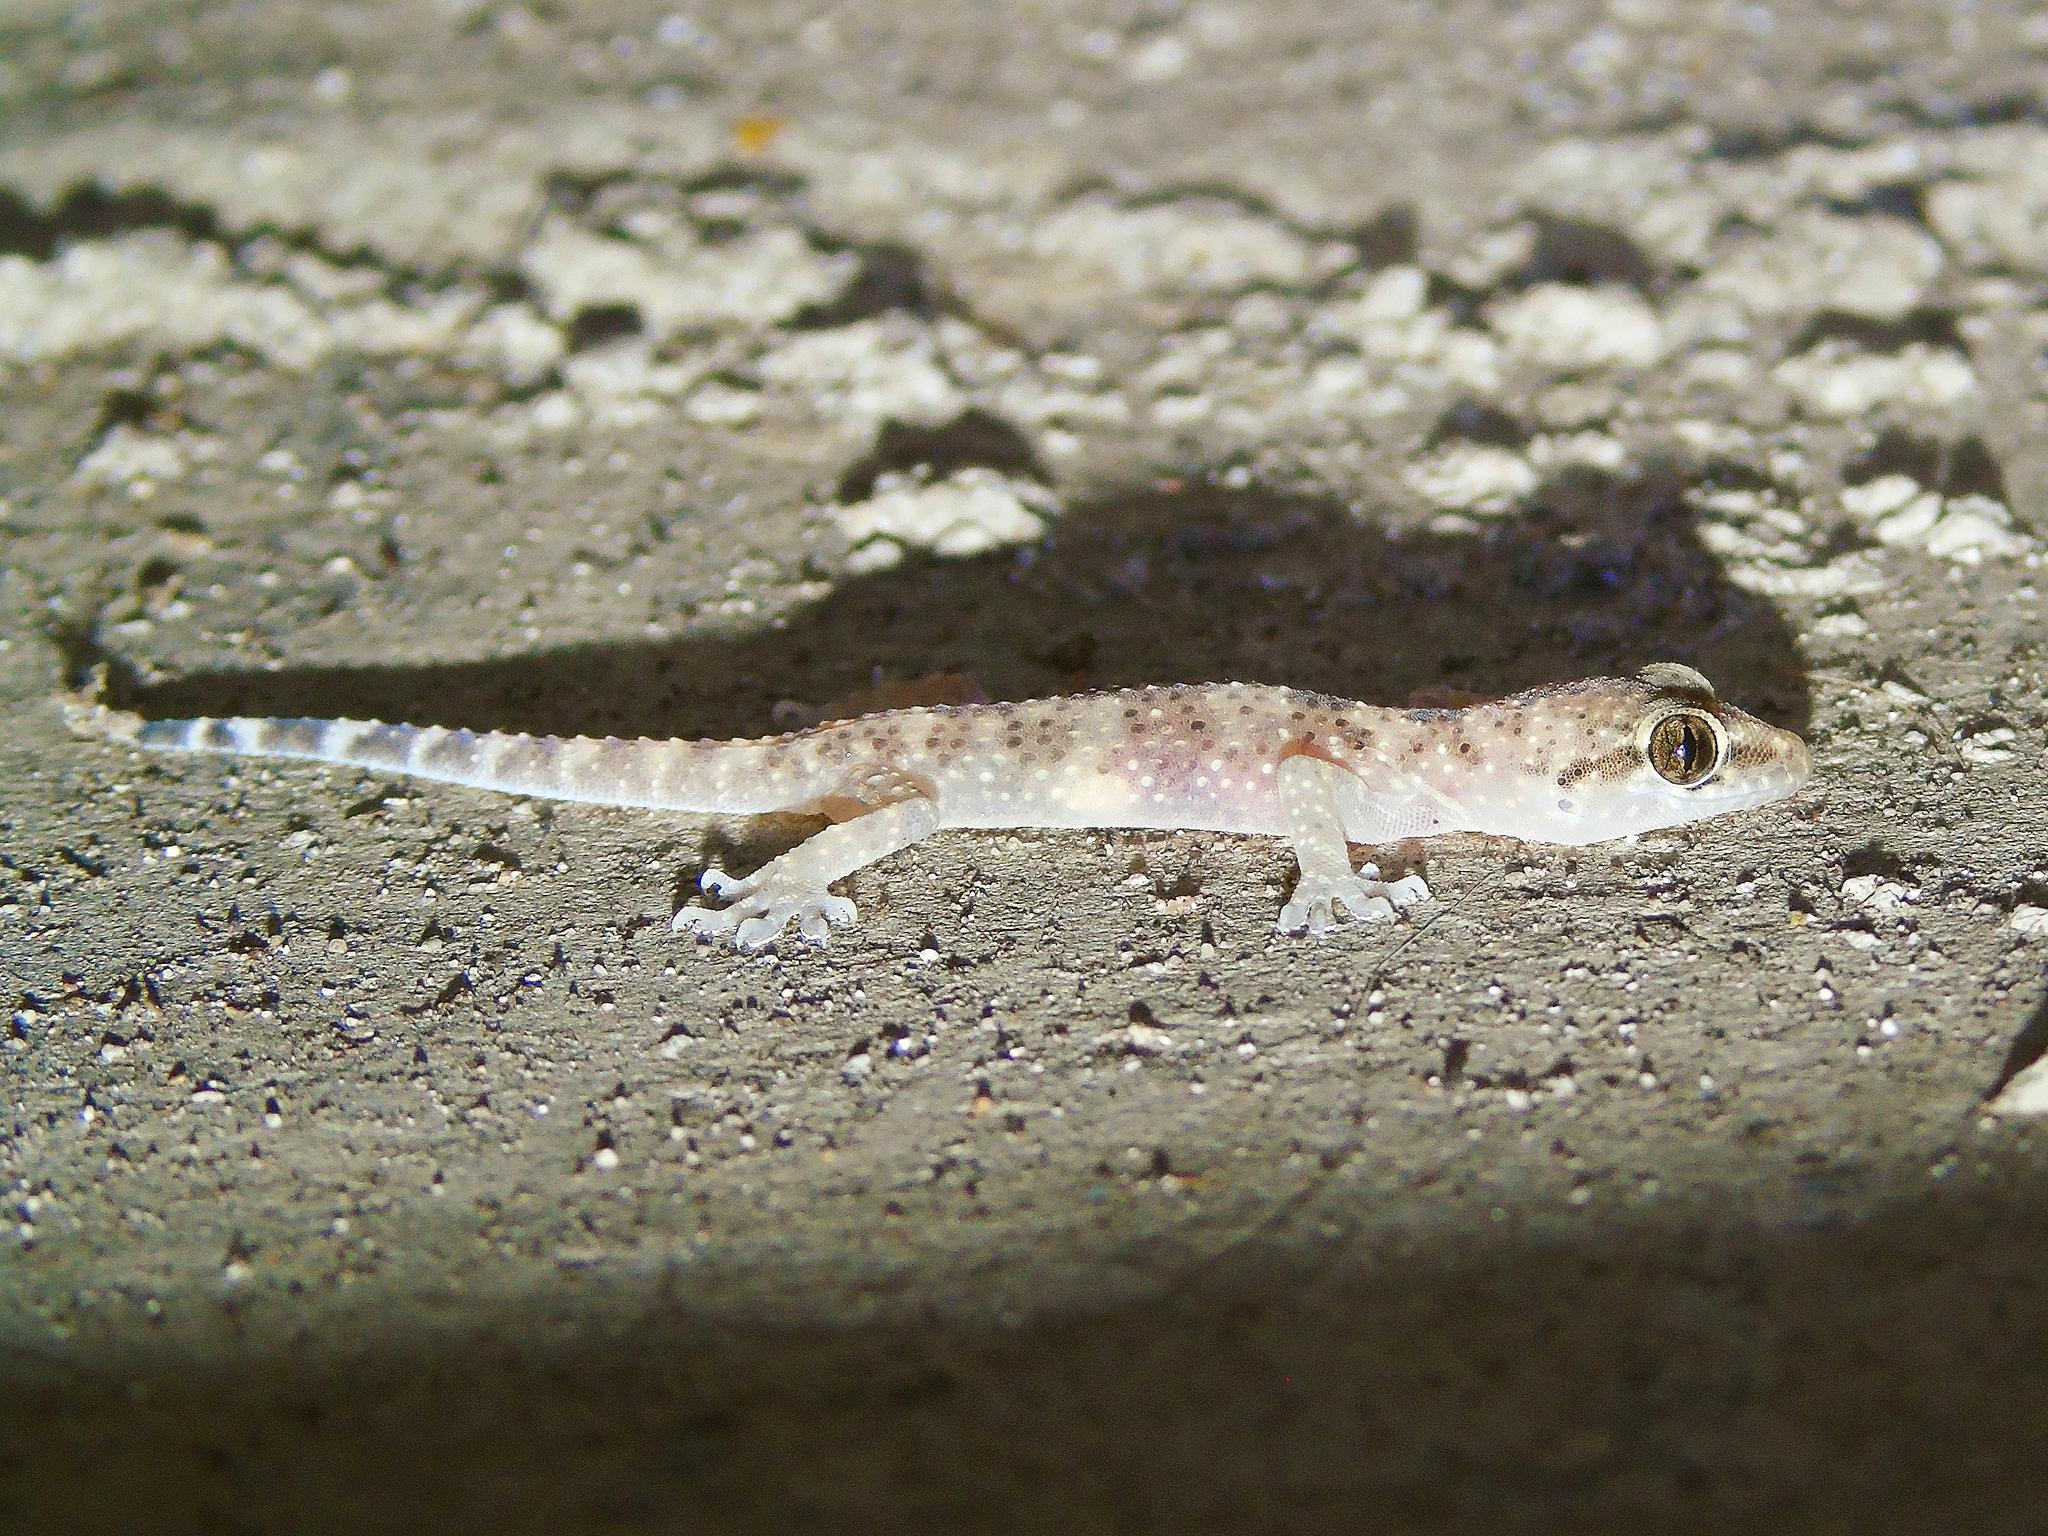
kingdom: Animalia
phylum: Chordata
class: Squamata
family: Gekkonidae
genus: Hemidactylus
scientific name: Hemidactylus turcicus
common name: Turkish gecko
